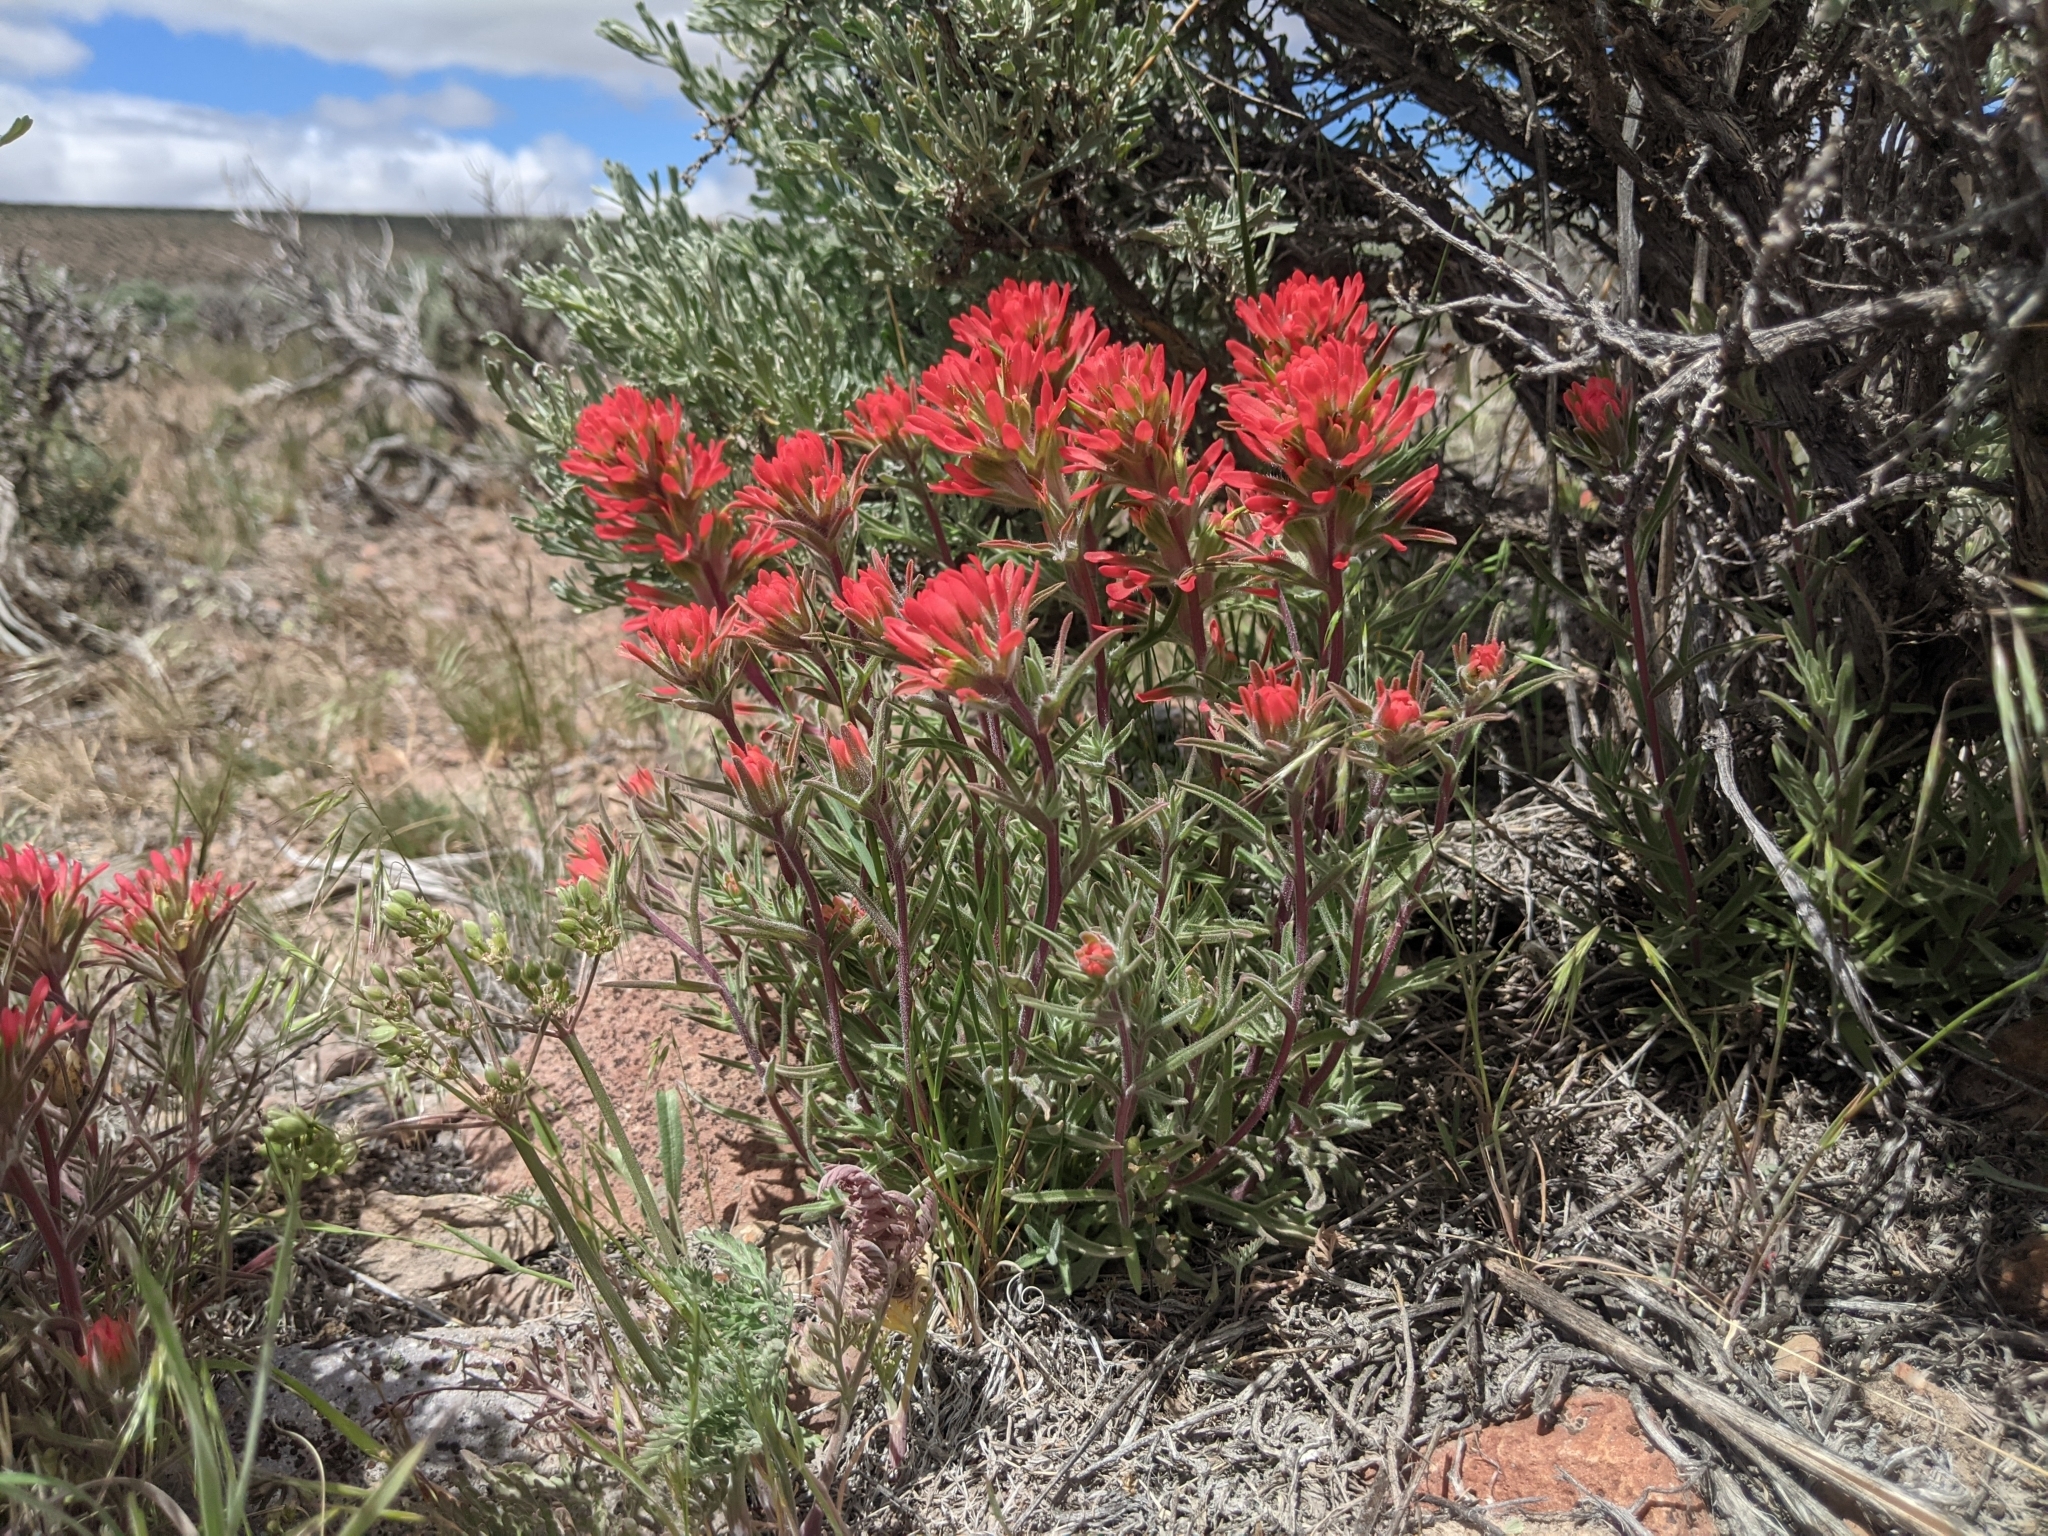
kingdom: Plantae
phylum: Tracheophyta
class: Magnoliopsida
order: Lamiales
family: Orobanchaceae
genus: Castilleja
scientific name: Castilleja chromosa
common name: Desert paintbrush
